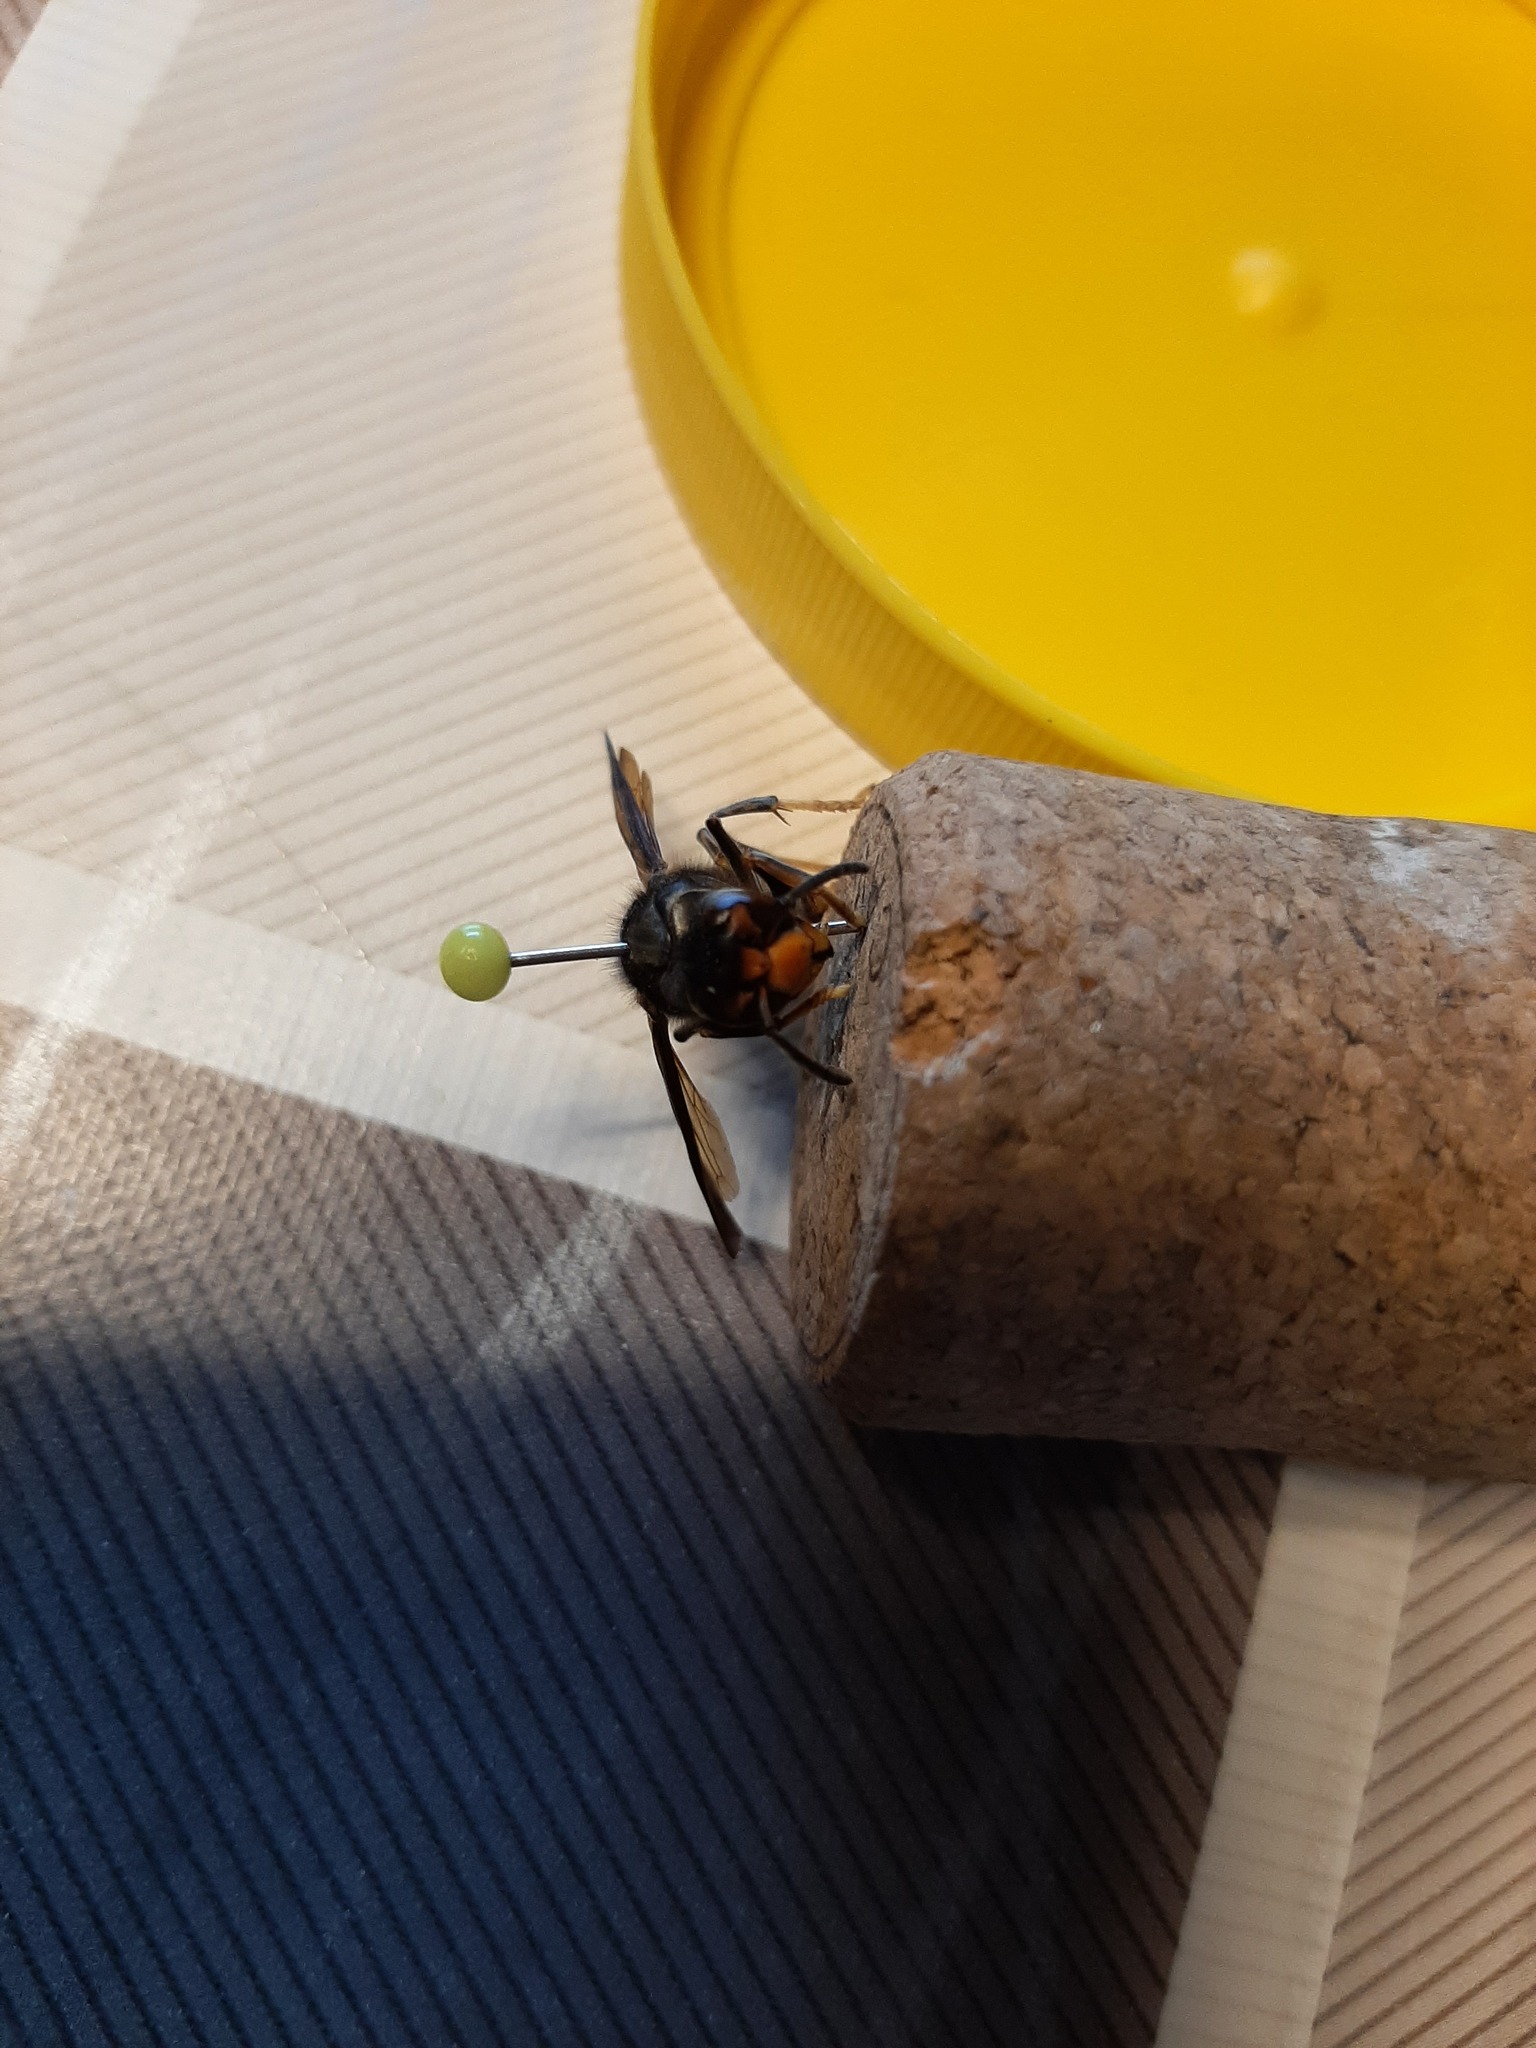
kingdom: Animalia
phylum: Arthropoda
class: Insecta
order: Hymenoptera
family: Vespidae
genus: Vespa
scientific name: Vespa velutina
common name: Asian hornet
